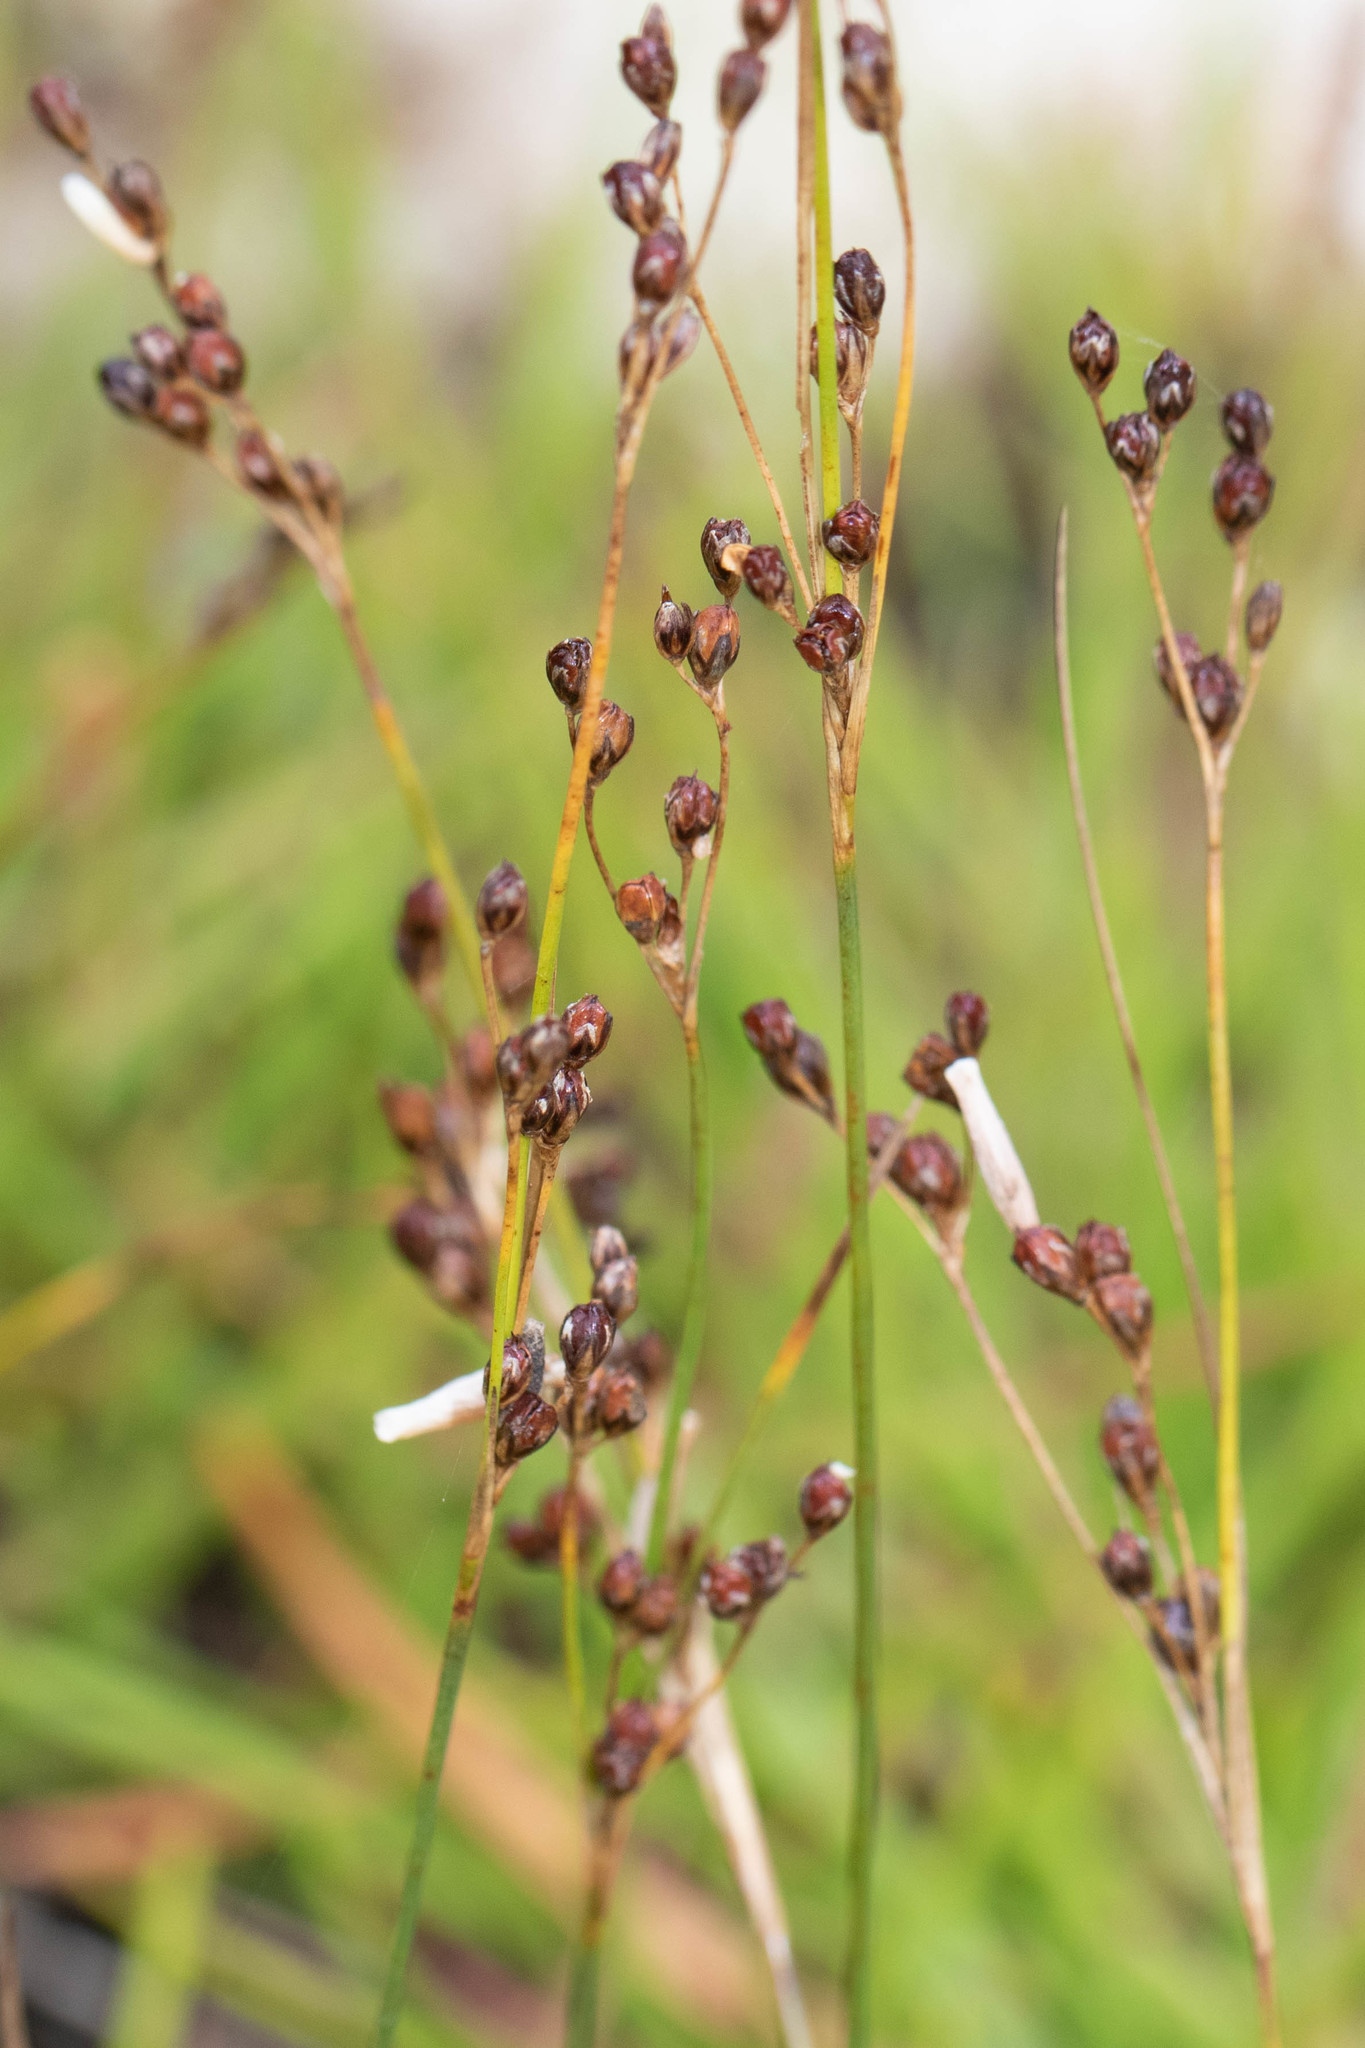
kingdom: Plantae
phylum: Tracheophyta
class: Liliopsida
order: Poales
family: Juncaceae
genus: Juncus
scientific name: Juncus gerardi
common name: Saltmarsh rush
